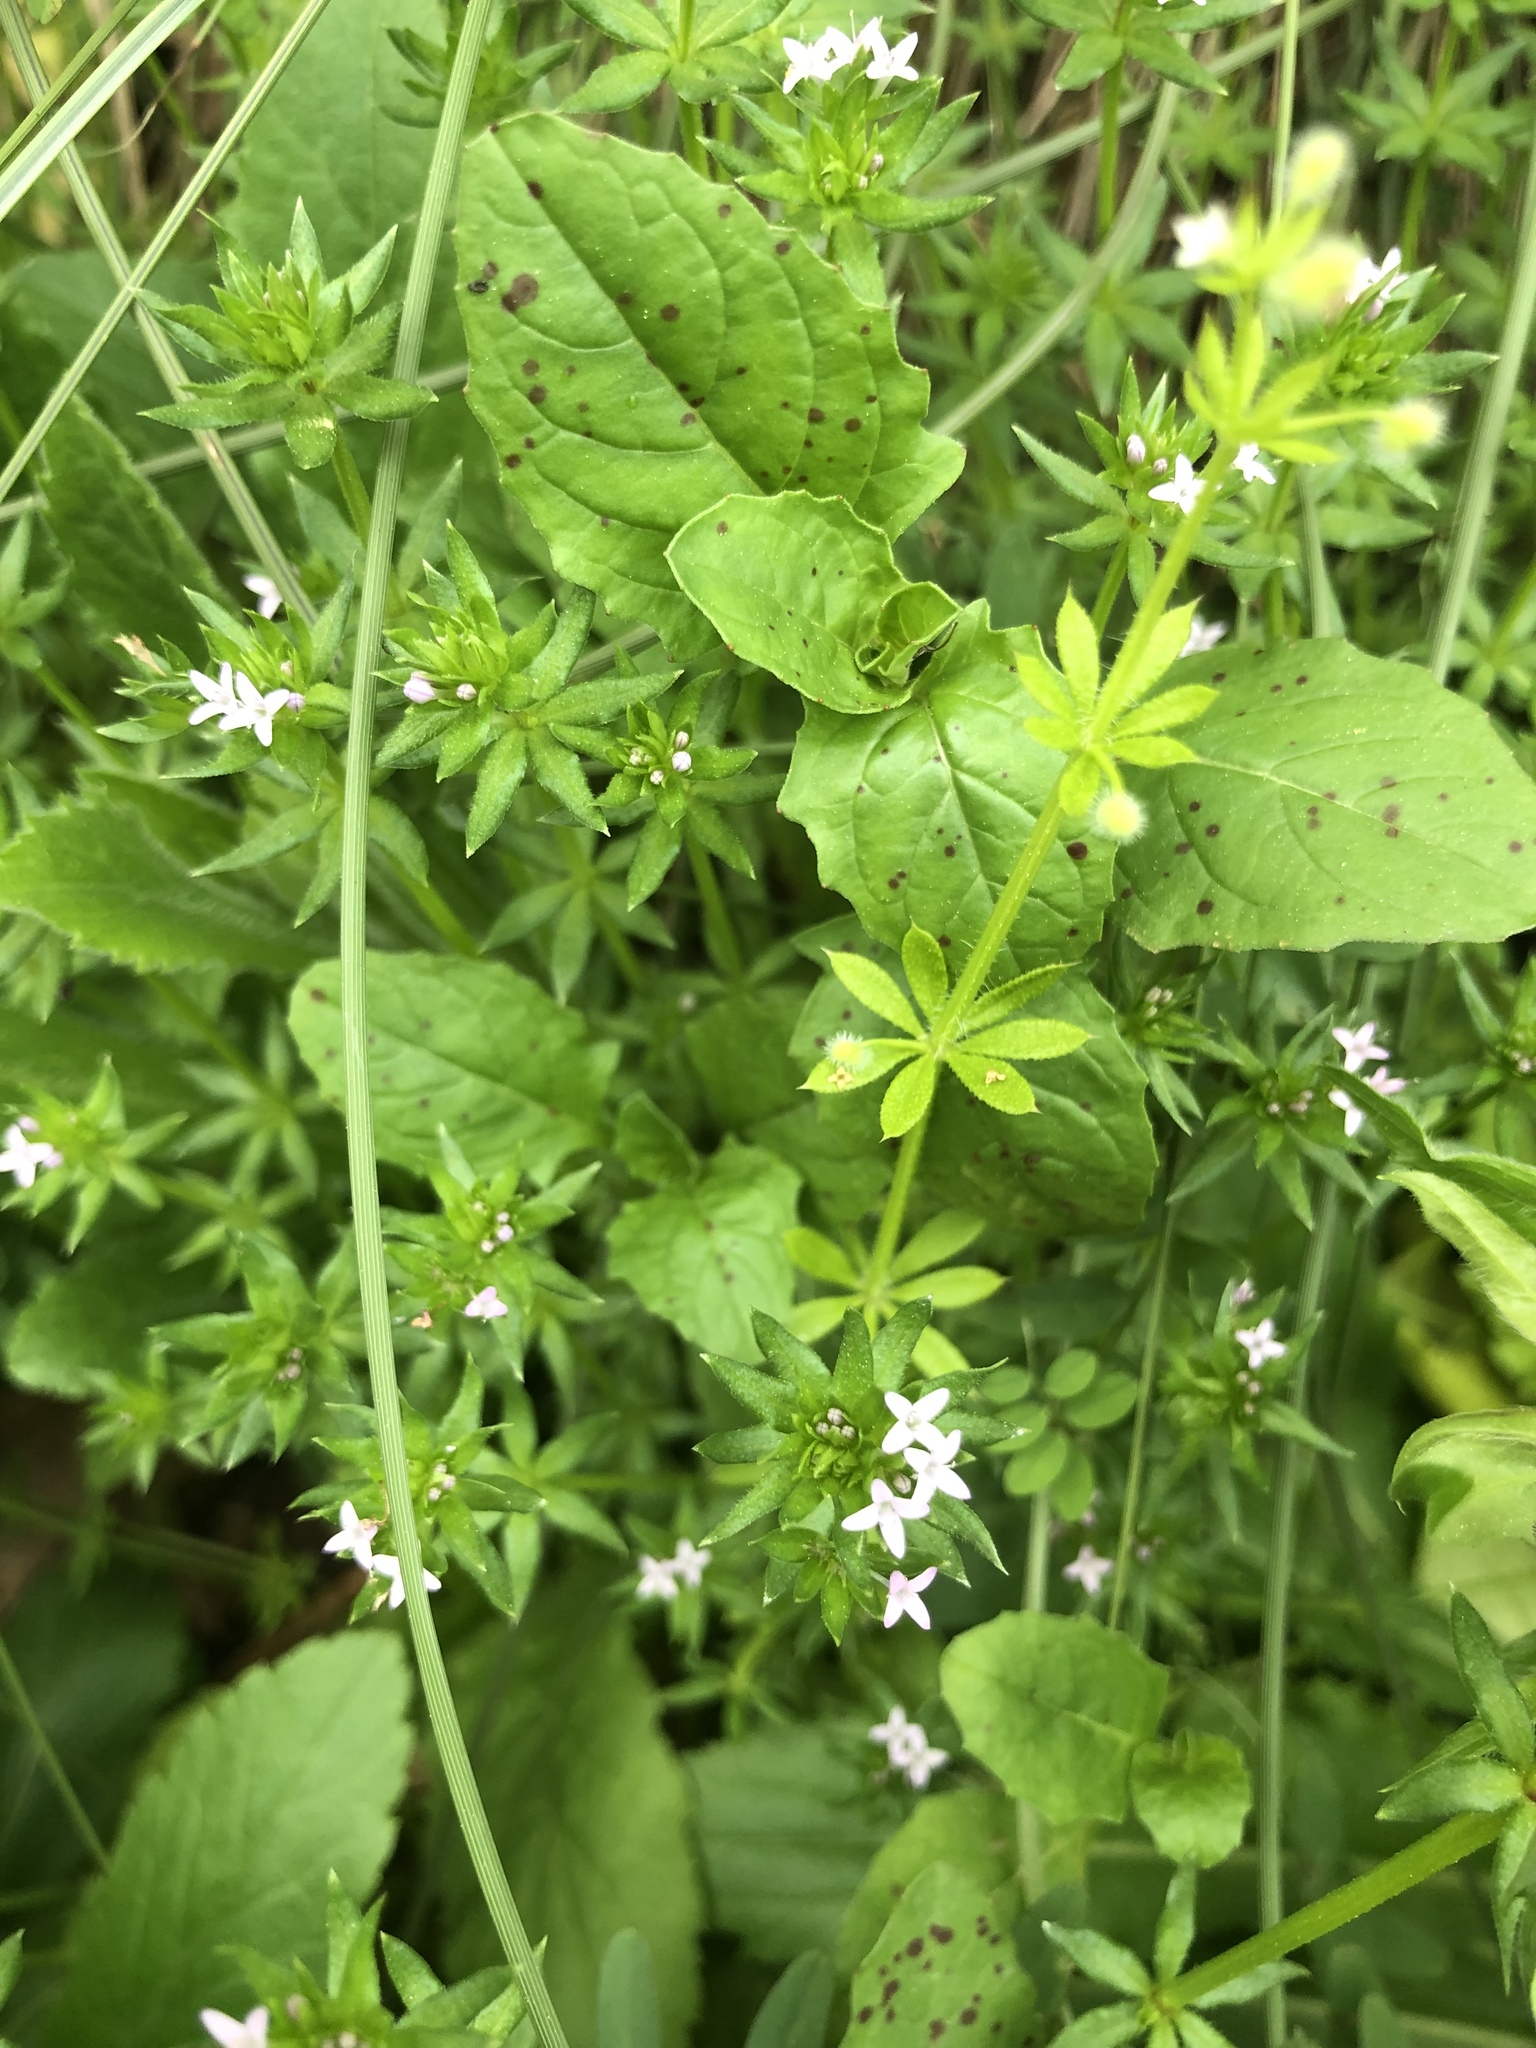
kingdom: Plantae
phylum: Tracheophyta
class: Magnoliopsida
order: Gentianales
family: Rubiaceae
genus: Sherardia
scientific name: Sherardia arvensis
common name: Field madder
